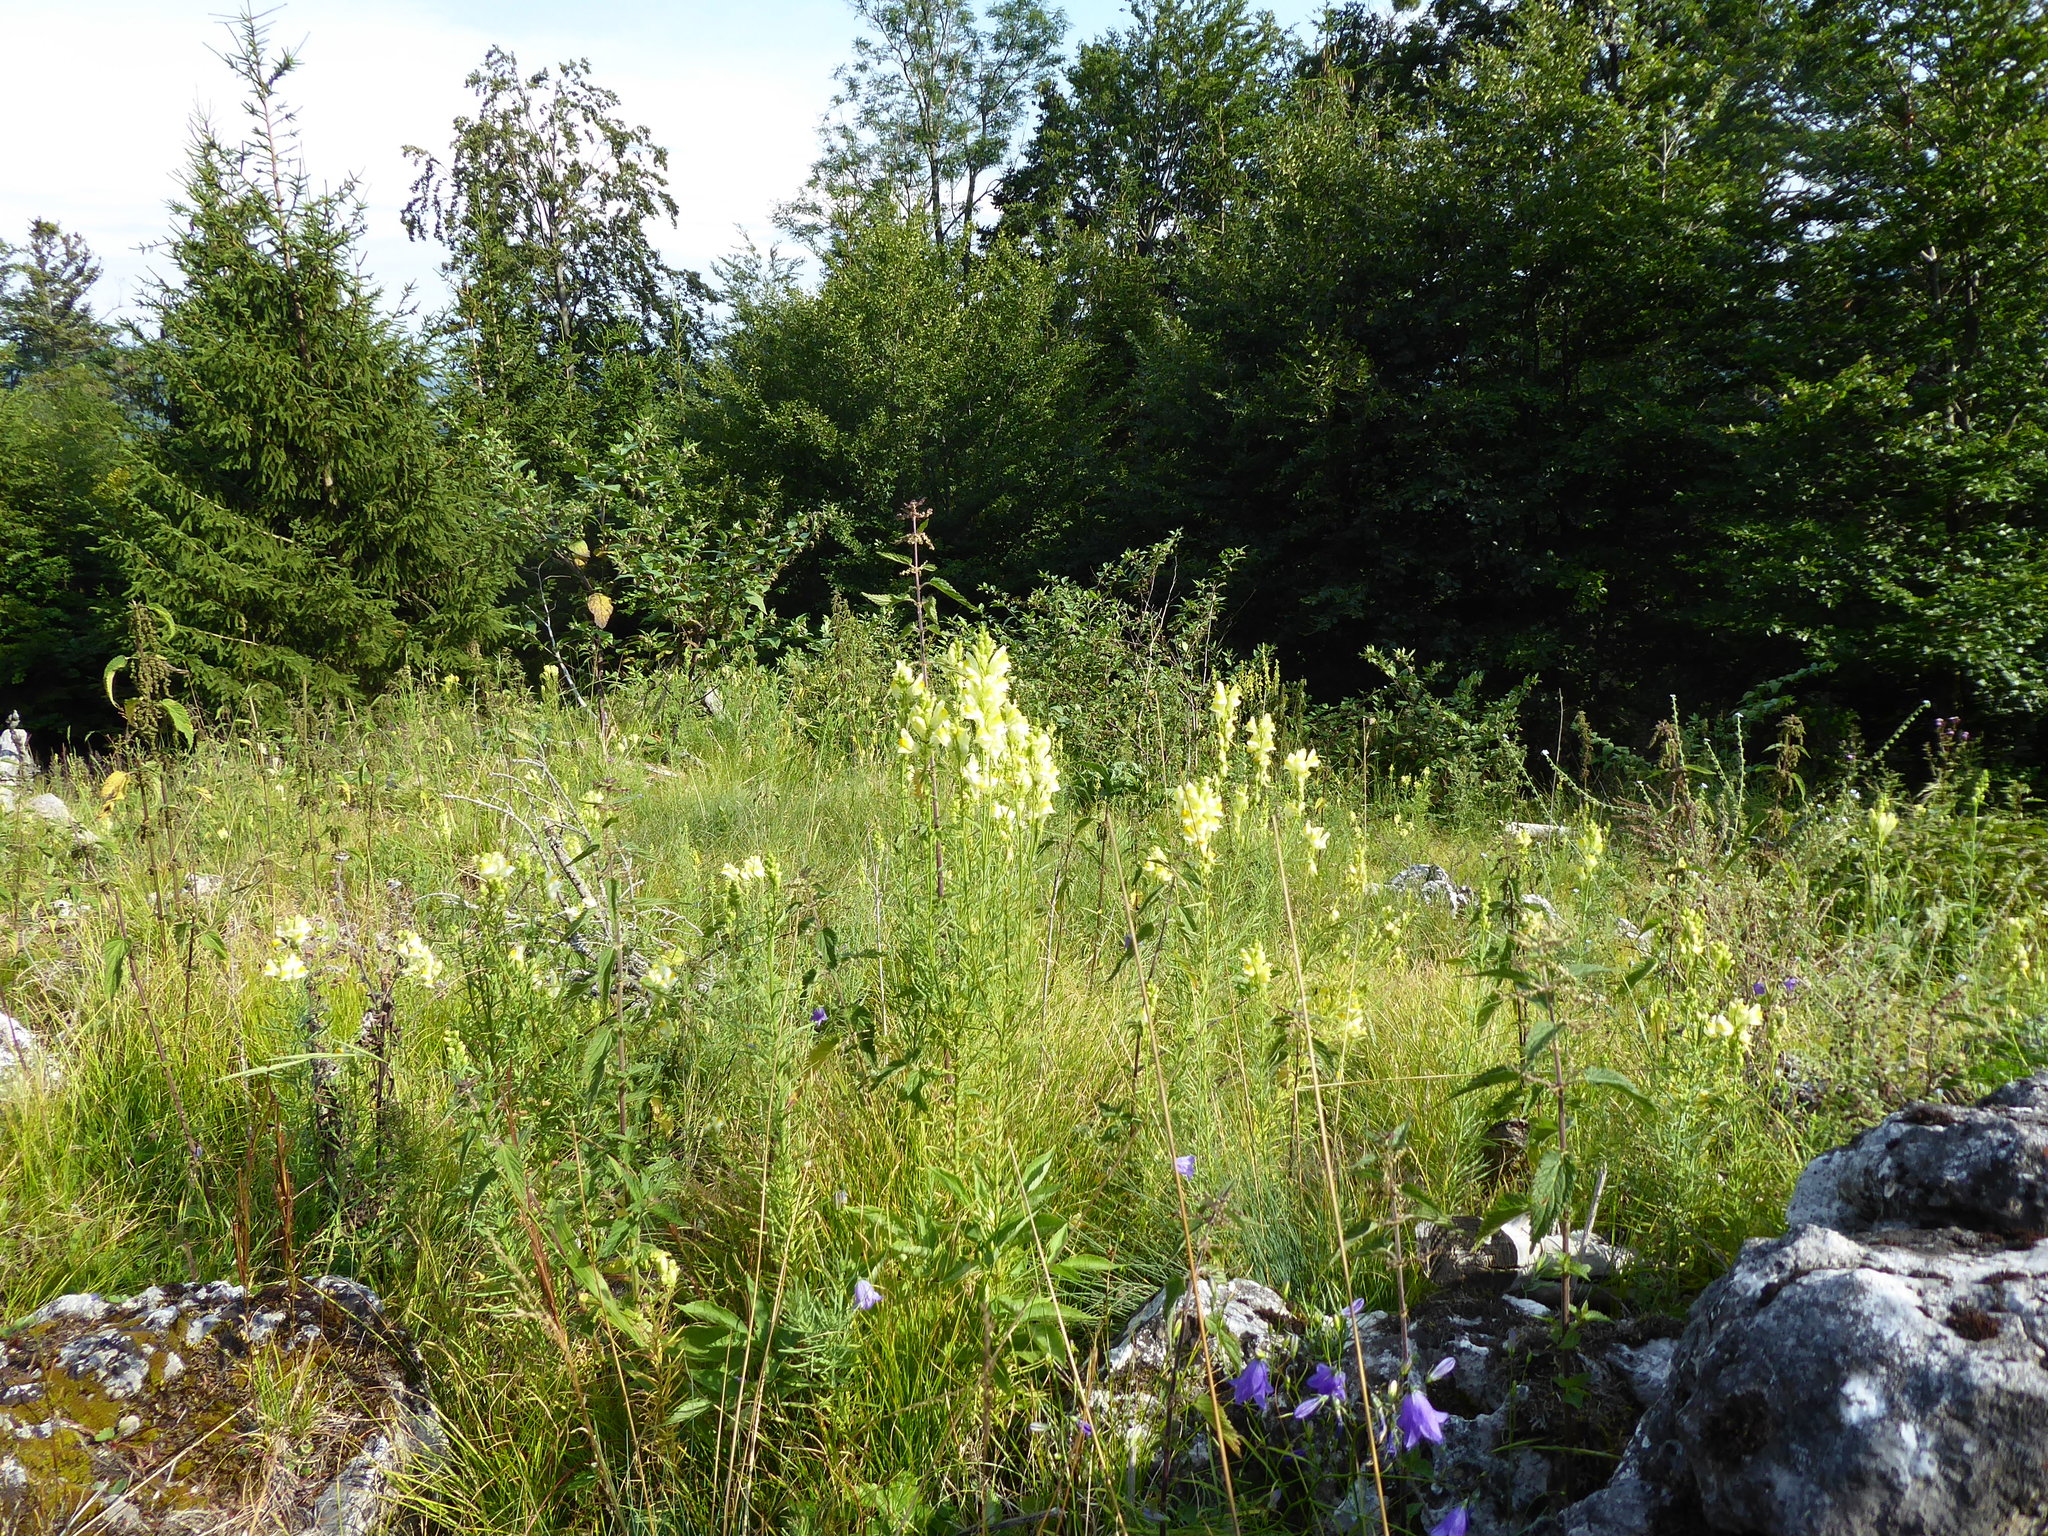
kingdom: Plantae
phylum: Tracheophyta
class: Magnoliopsida
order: Lamiales
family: Plantaginaceae
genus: Linaria
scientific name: Linaria vulgaris
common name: Butter and eggs
